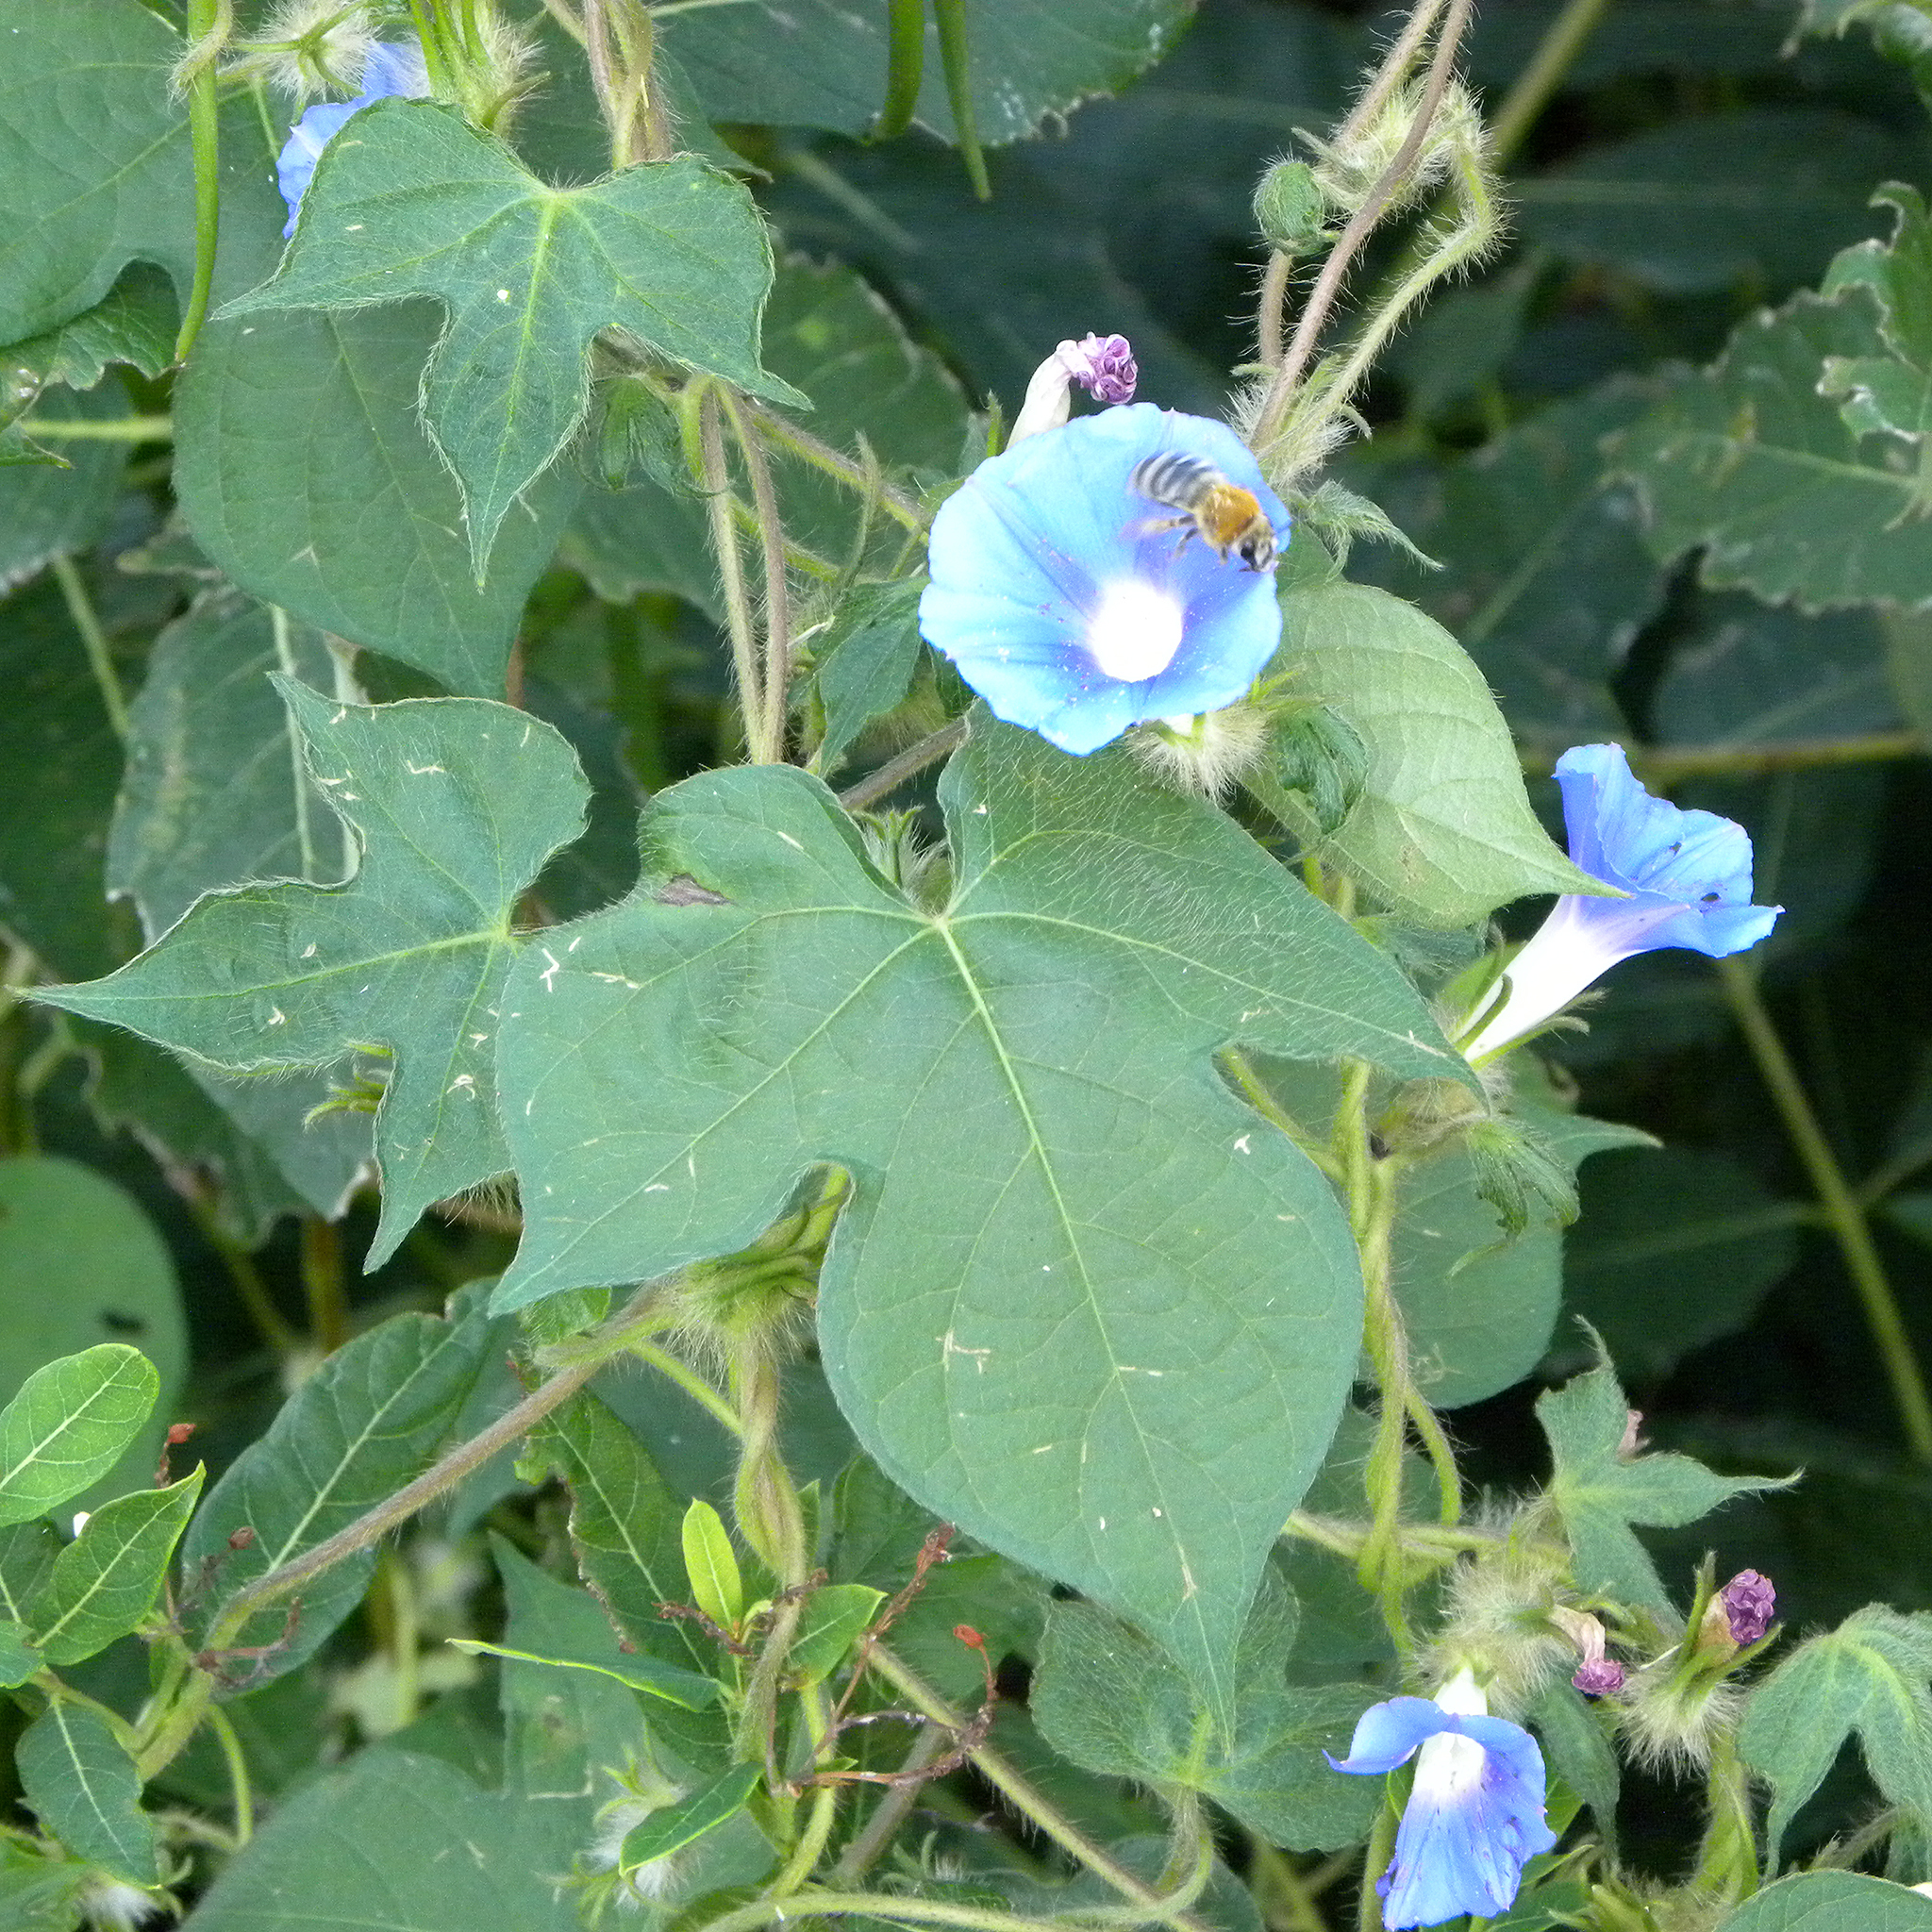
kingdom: Plantae
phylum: Tracheophyta
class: Magnoliopsida
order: Solanales
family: Convolvulaceae
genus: Ipomoea
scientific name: Ipomoea hederacea
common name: Ivy-leaved morning-glory
